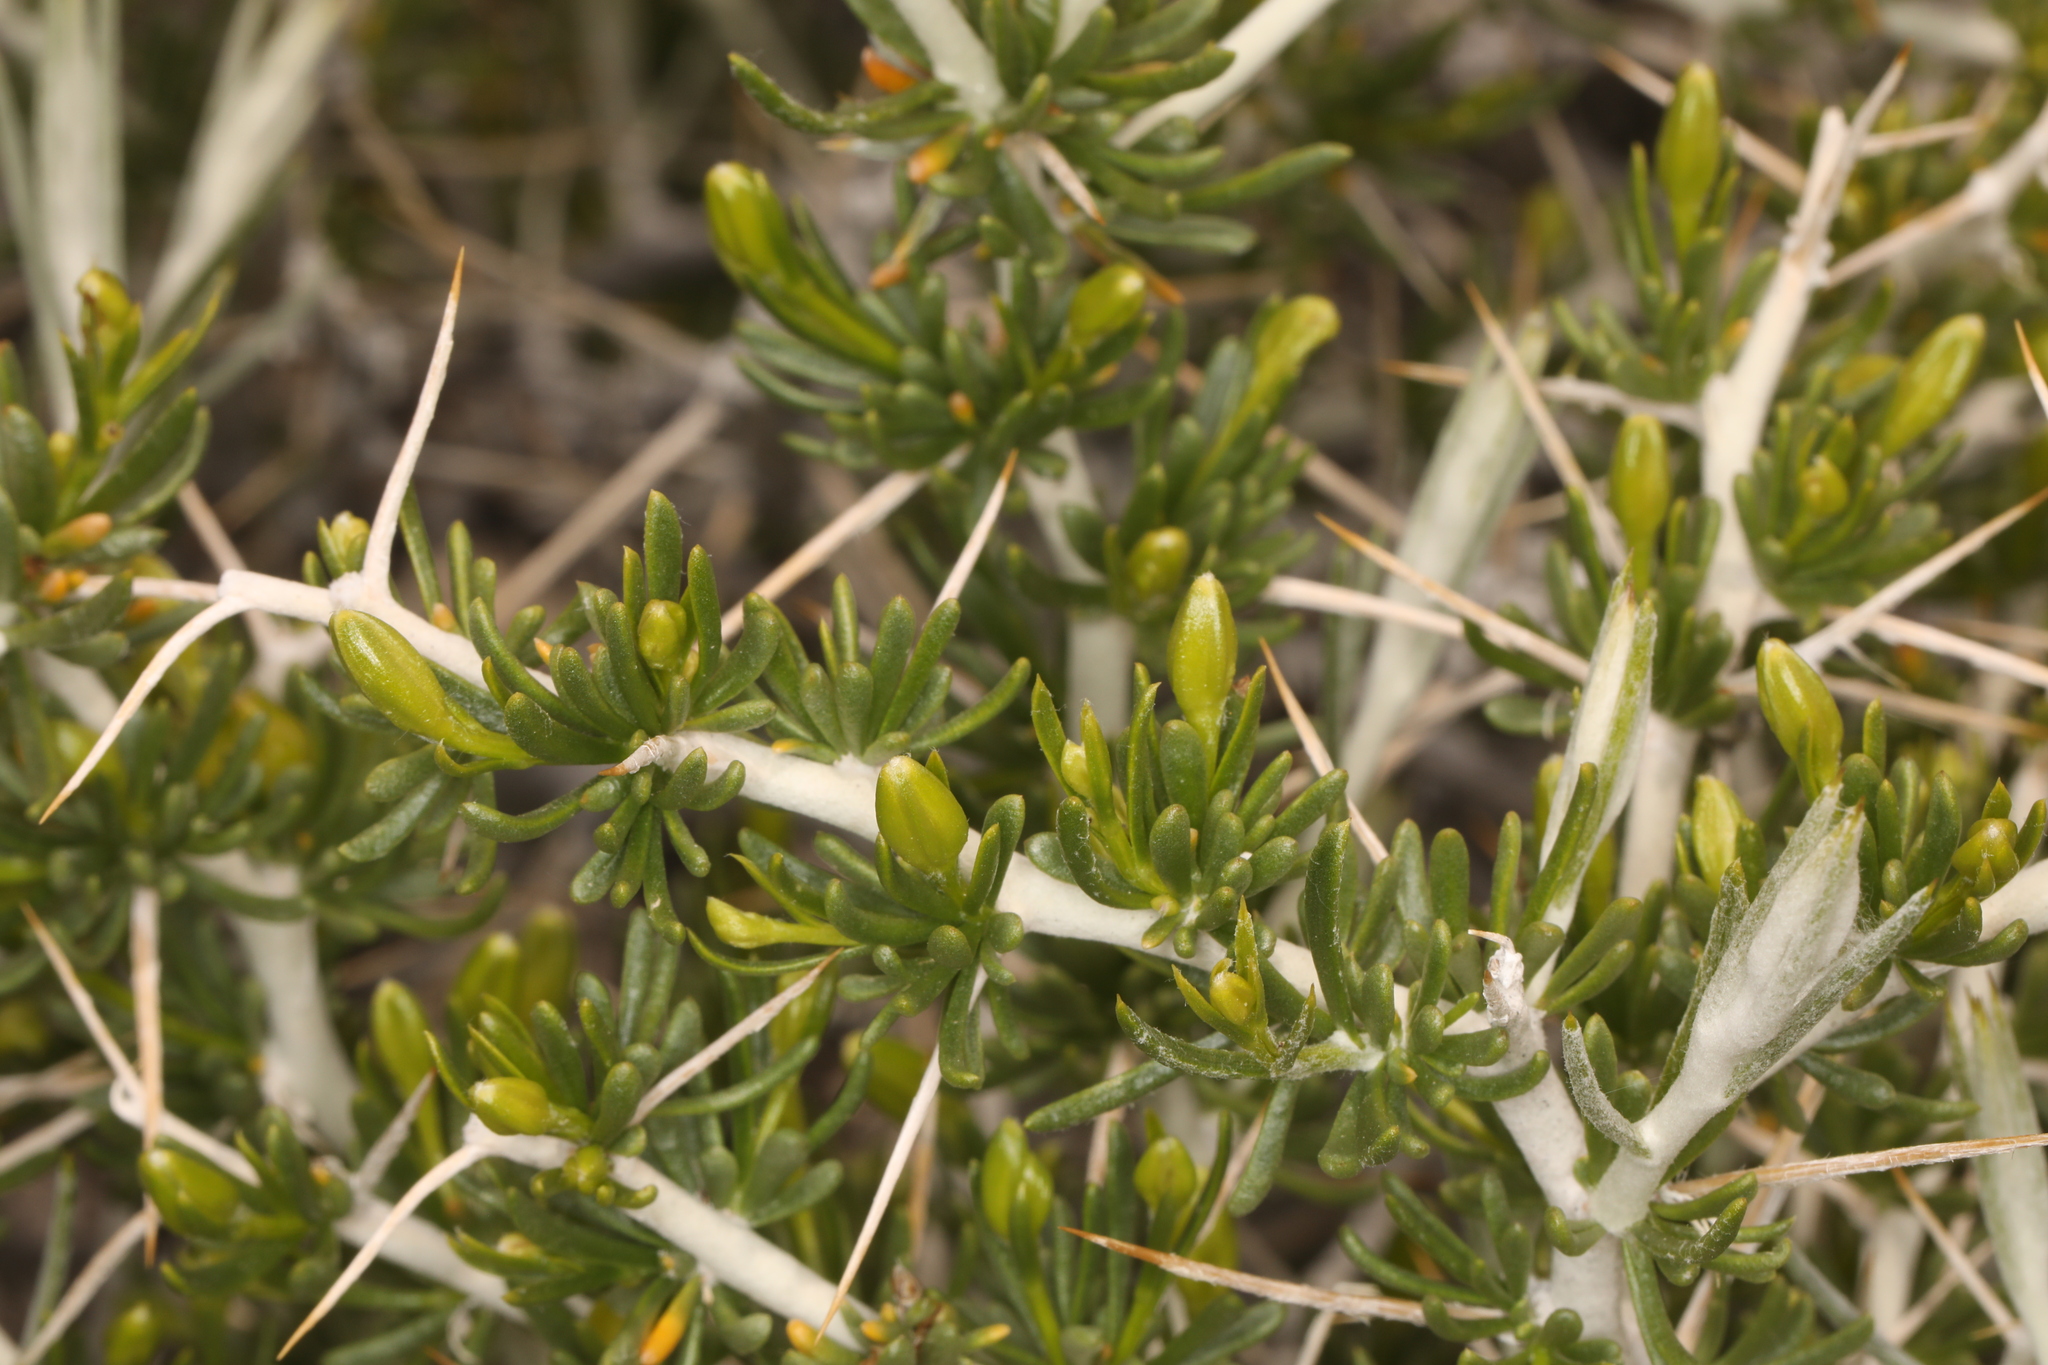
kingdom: Plantae
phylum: Tracheophyta
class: Magnoliopsida
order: Asterales
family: Asteraceae
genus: Tetradymia
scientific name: Tetradymia axillaris
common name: Long-spine horsebrush
